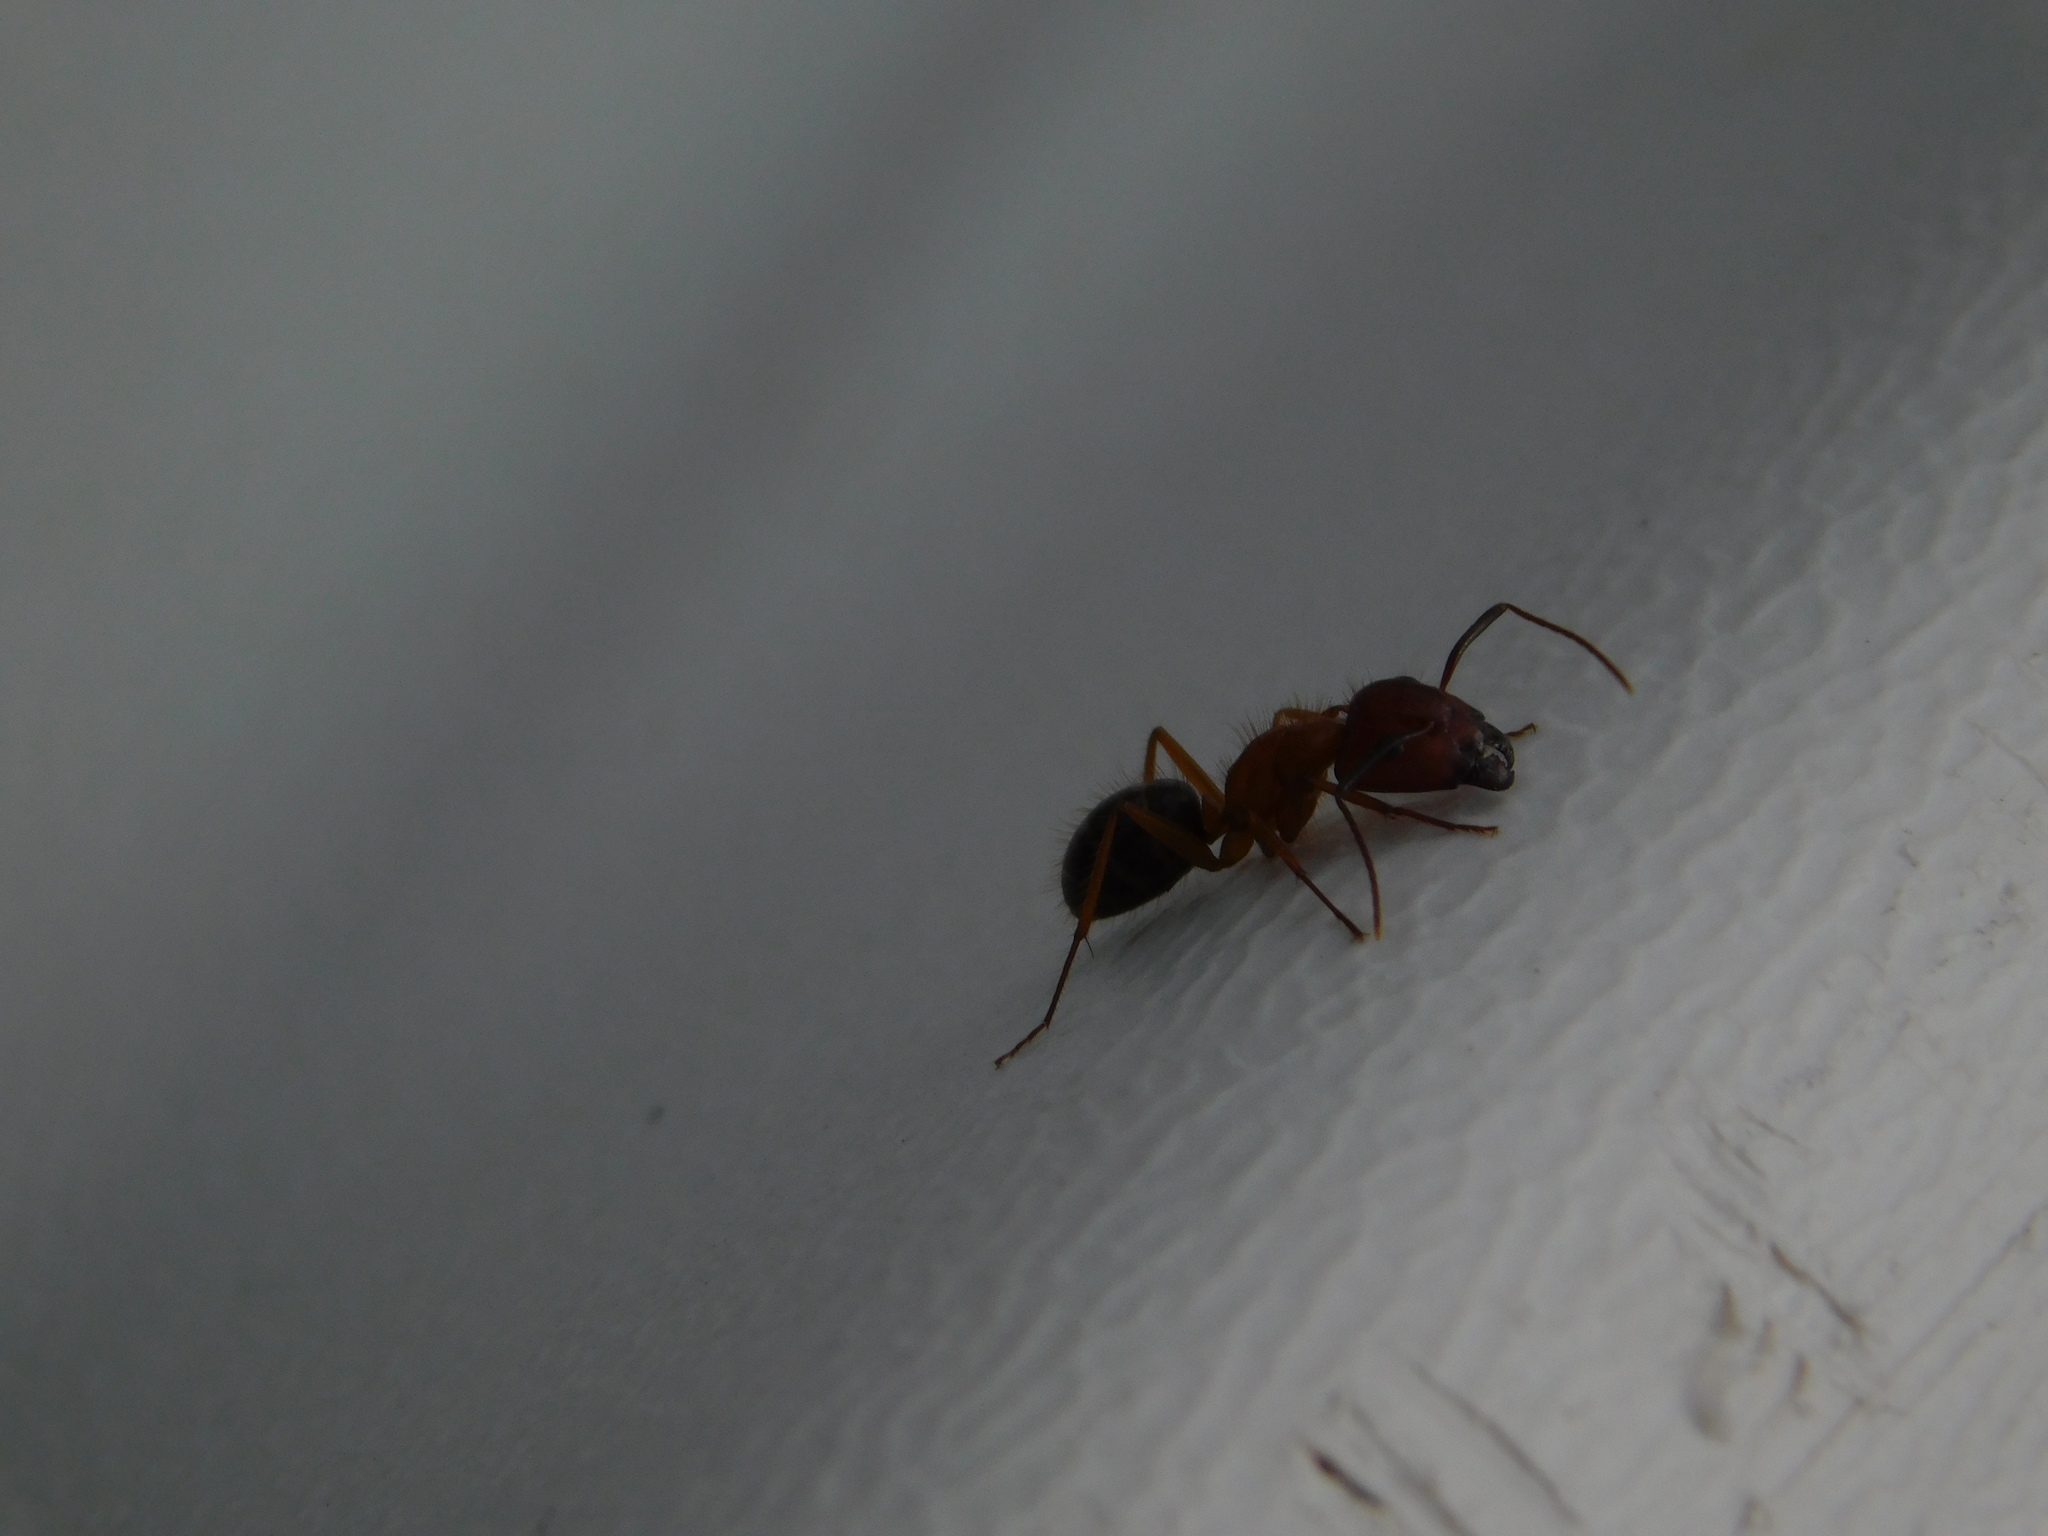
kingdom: Animalia
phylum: Arthropoda
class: Insecta
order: Hymenoptera
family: Formicidae
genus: Camponotus
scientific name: Camponotus floridanus
